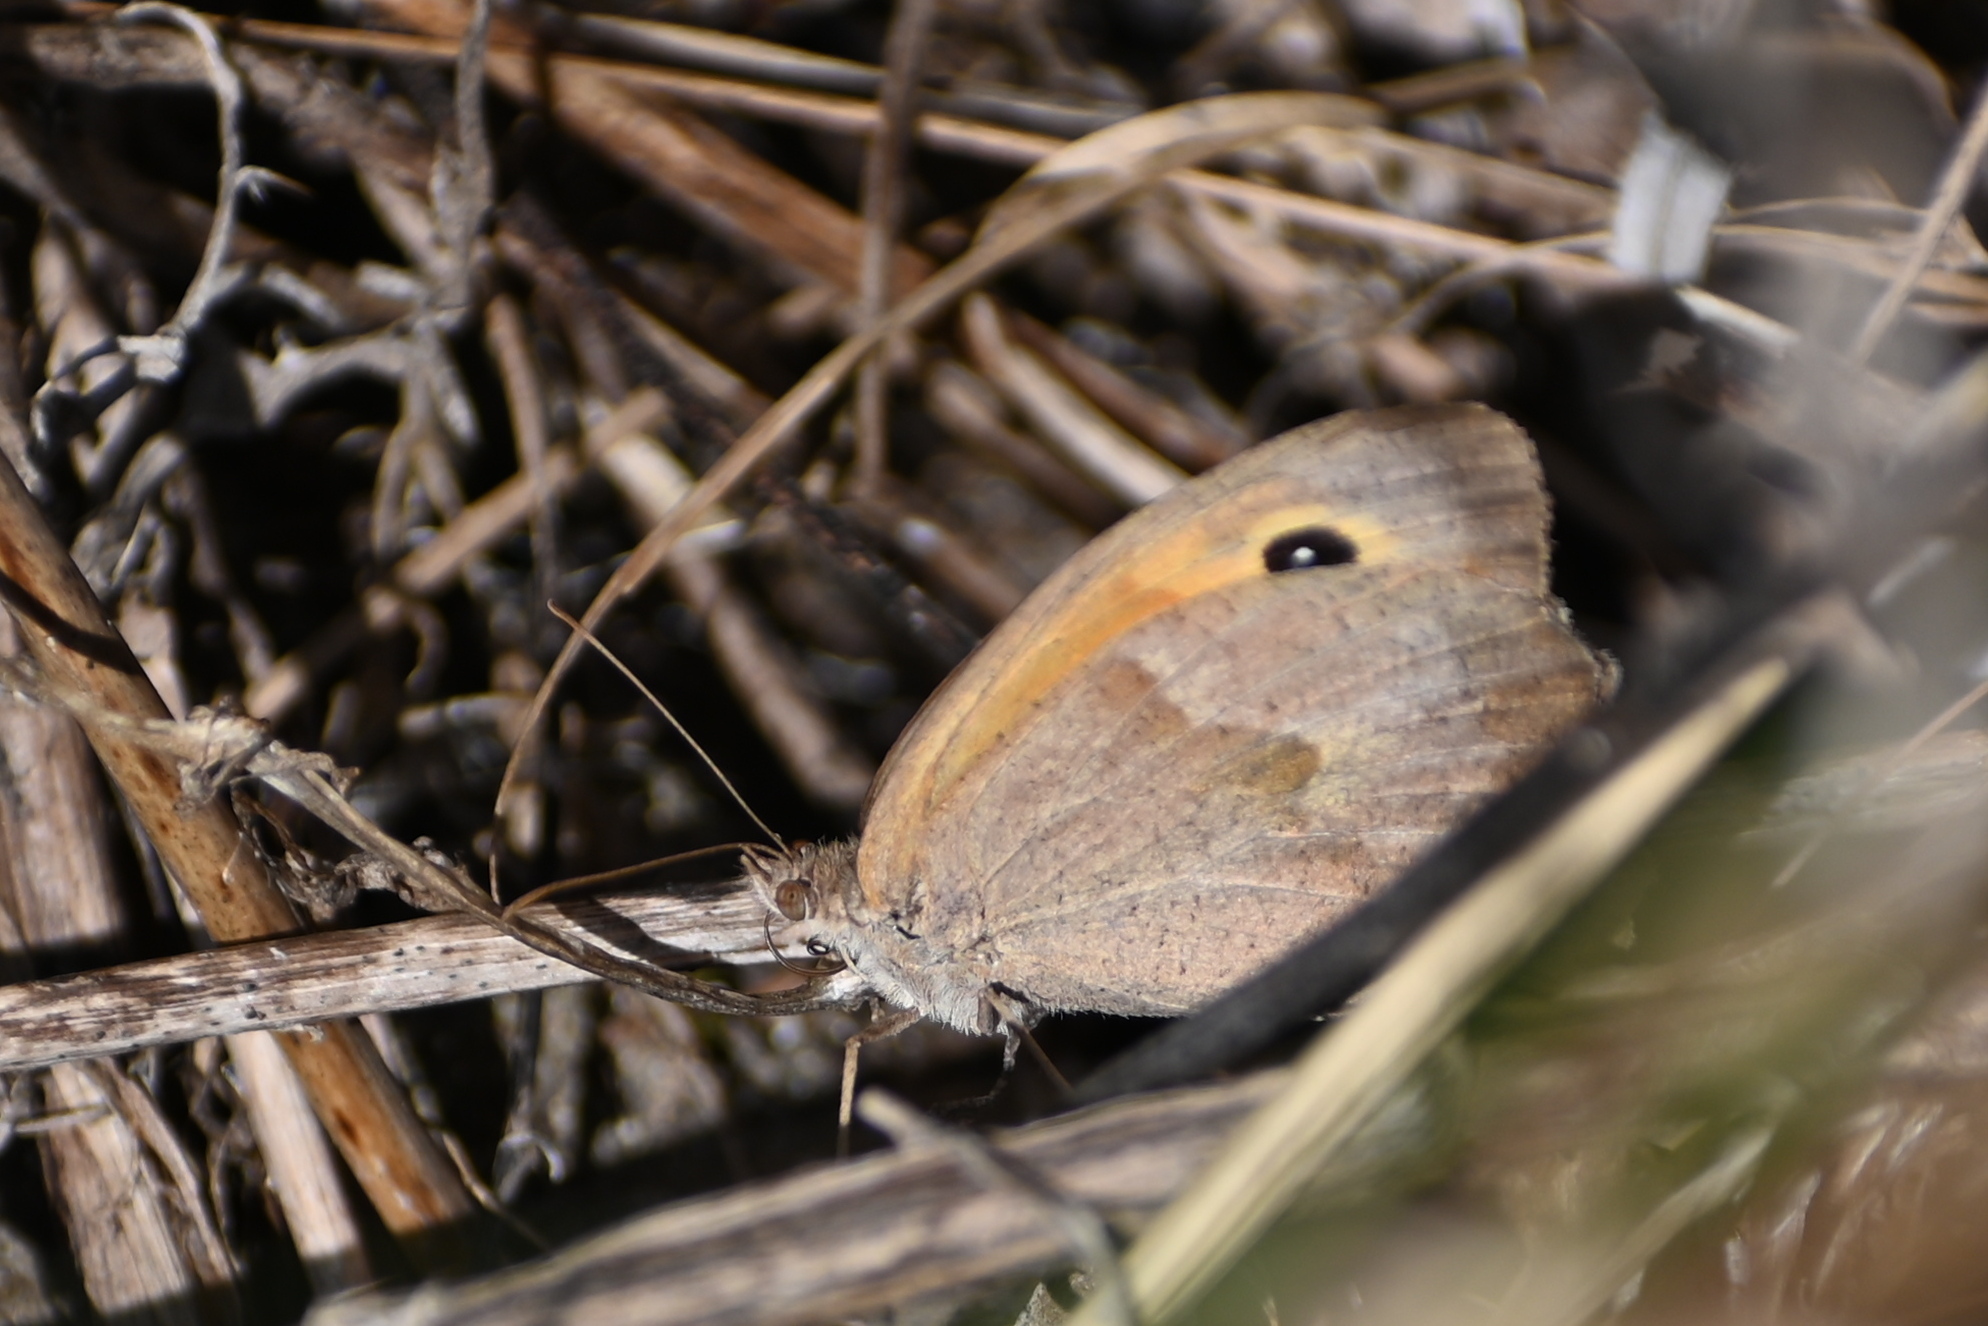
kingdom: Animalia
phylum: Arthropoda
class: Insecta
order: Lepidoptera
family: Nymphalidae
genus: Maniola
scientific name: Maniola jurtina
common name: Meadow brown
